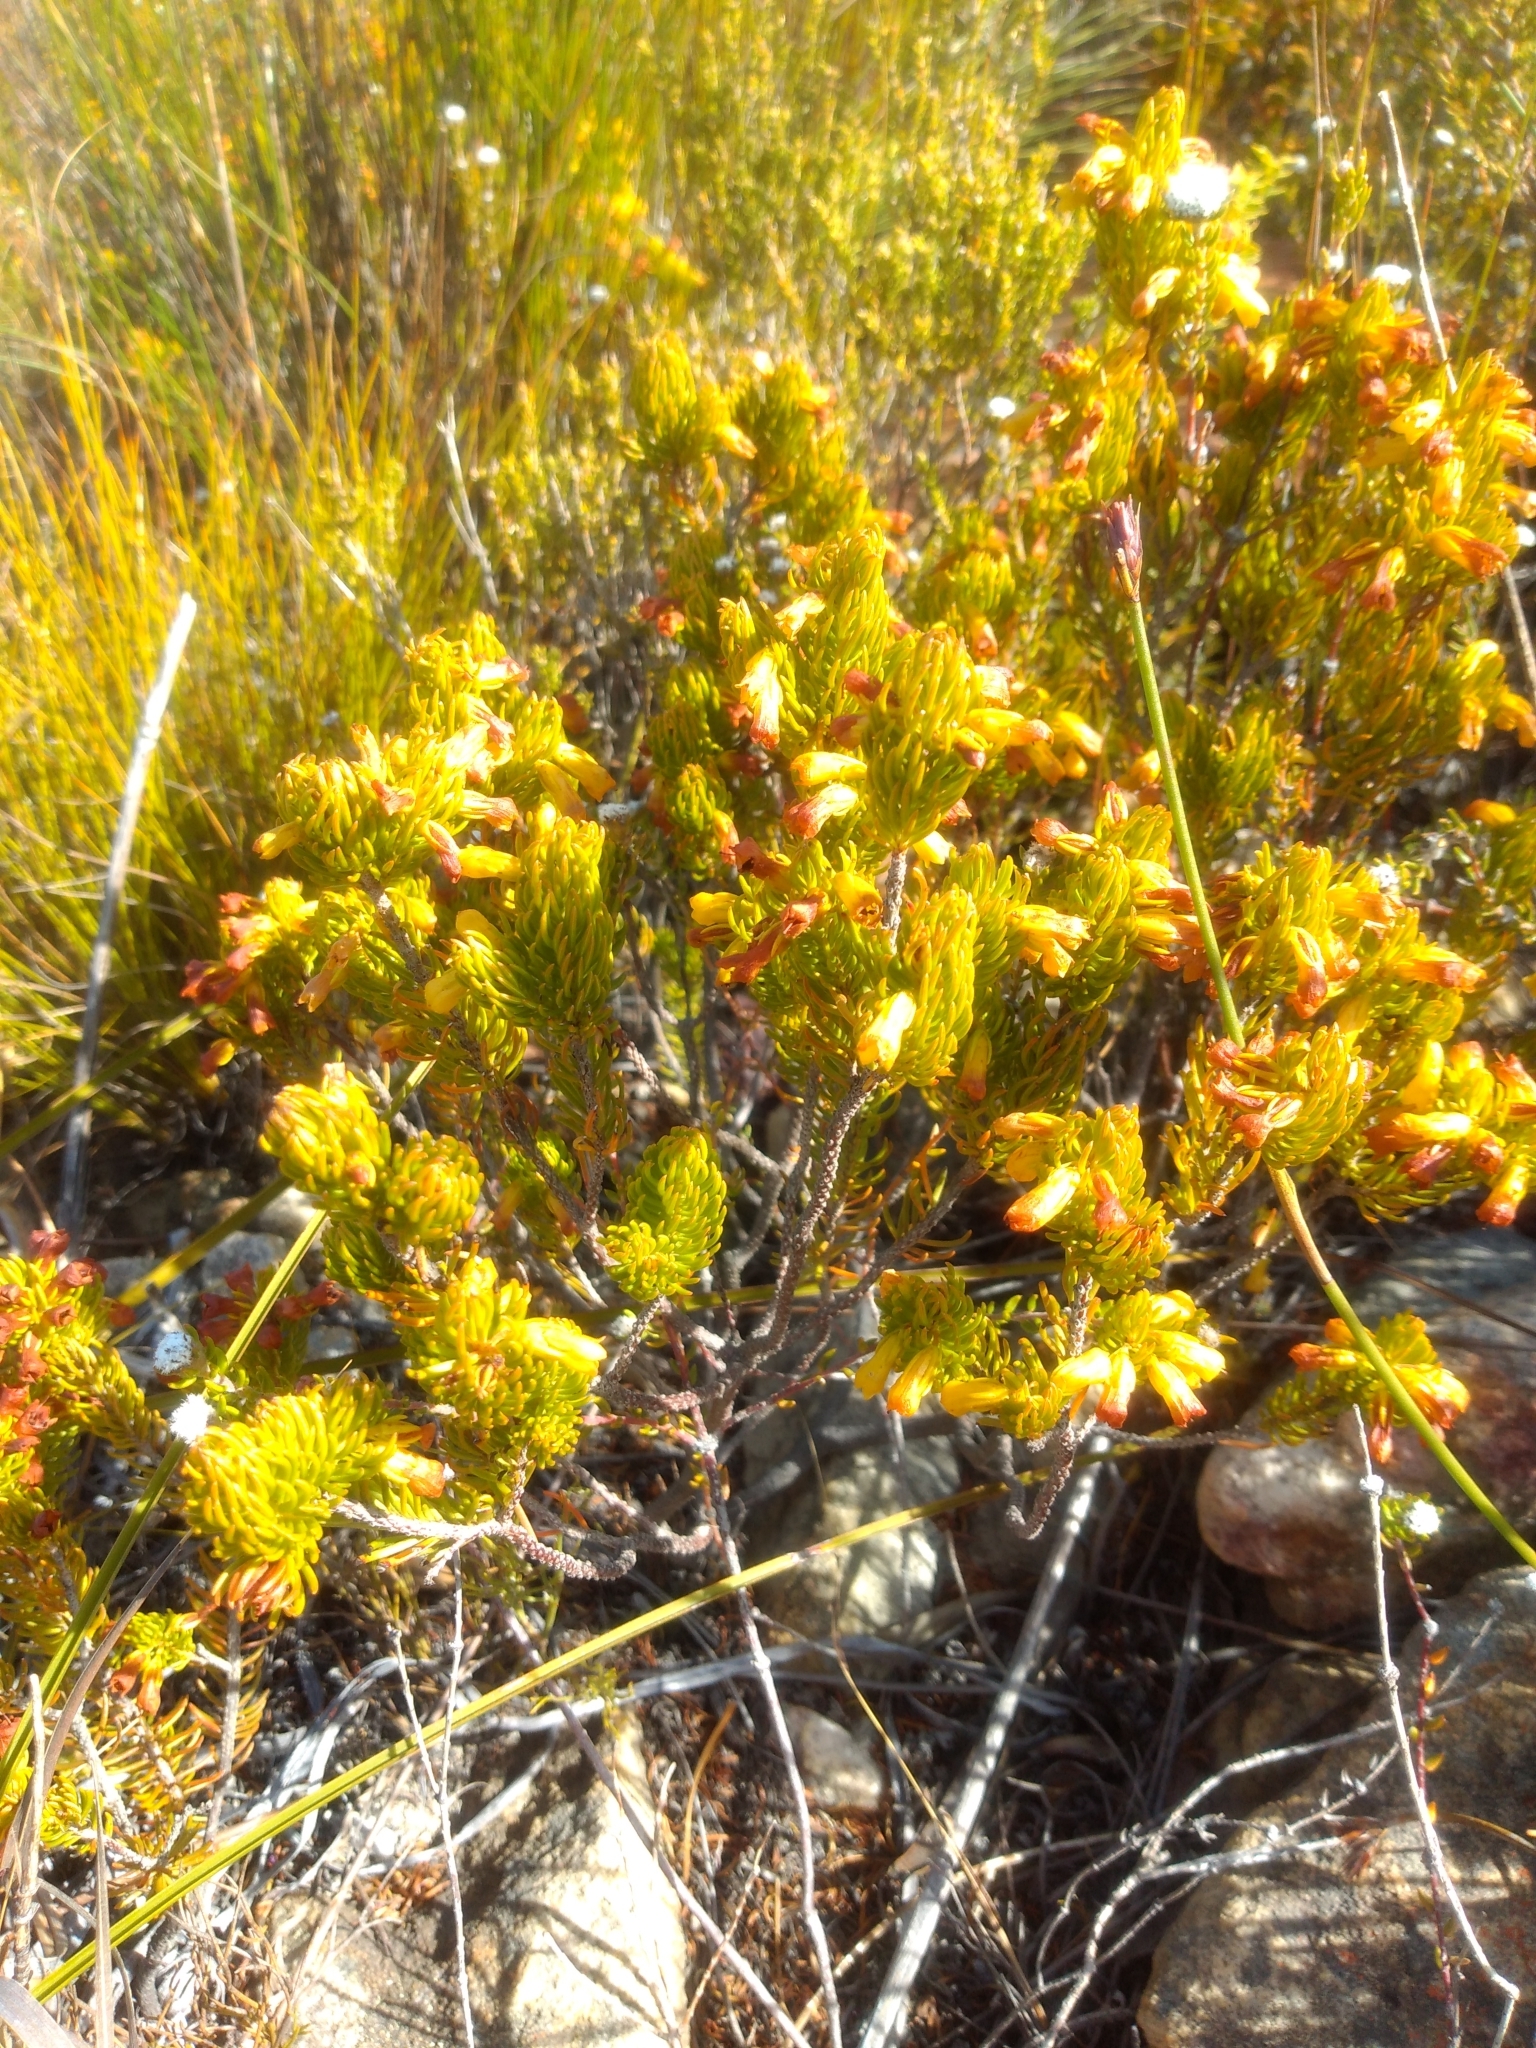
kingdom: Plantae
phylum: Tracheophyta
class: Magnoliopsida
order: Ericales
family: Ericaceae
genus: Erica
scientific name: Erica petrusiana
